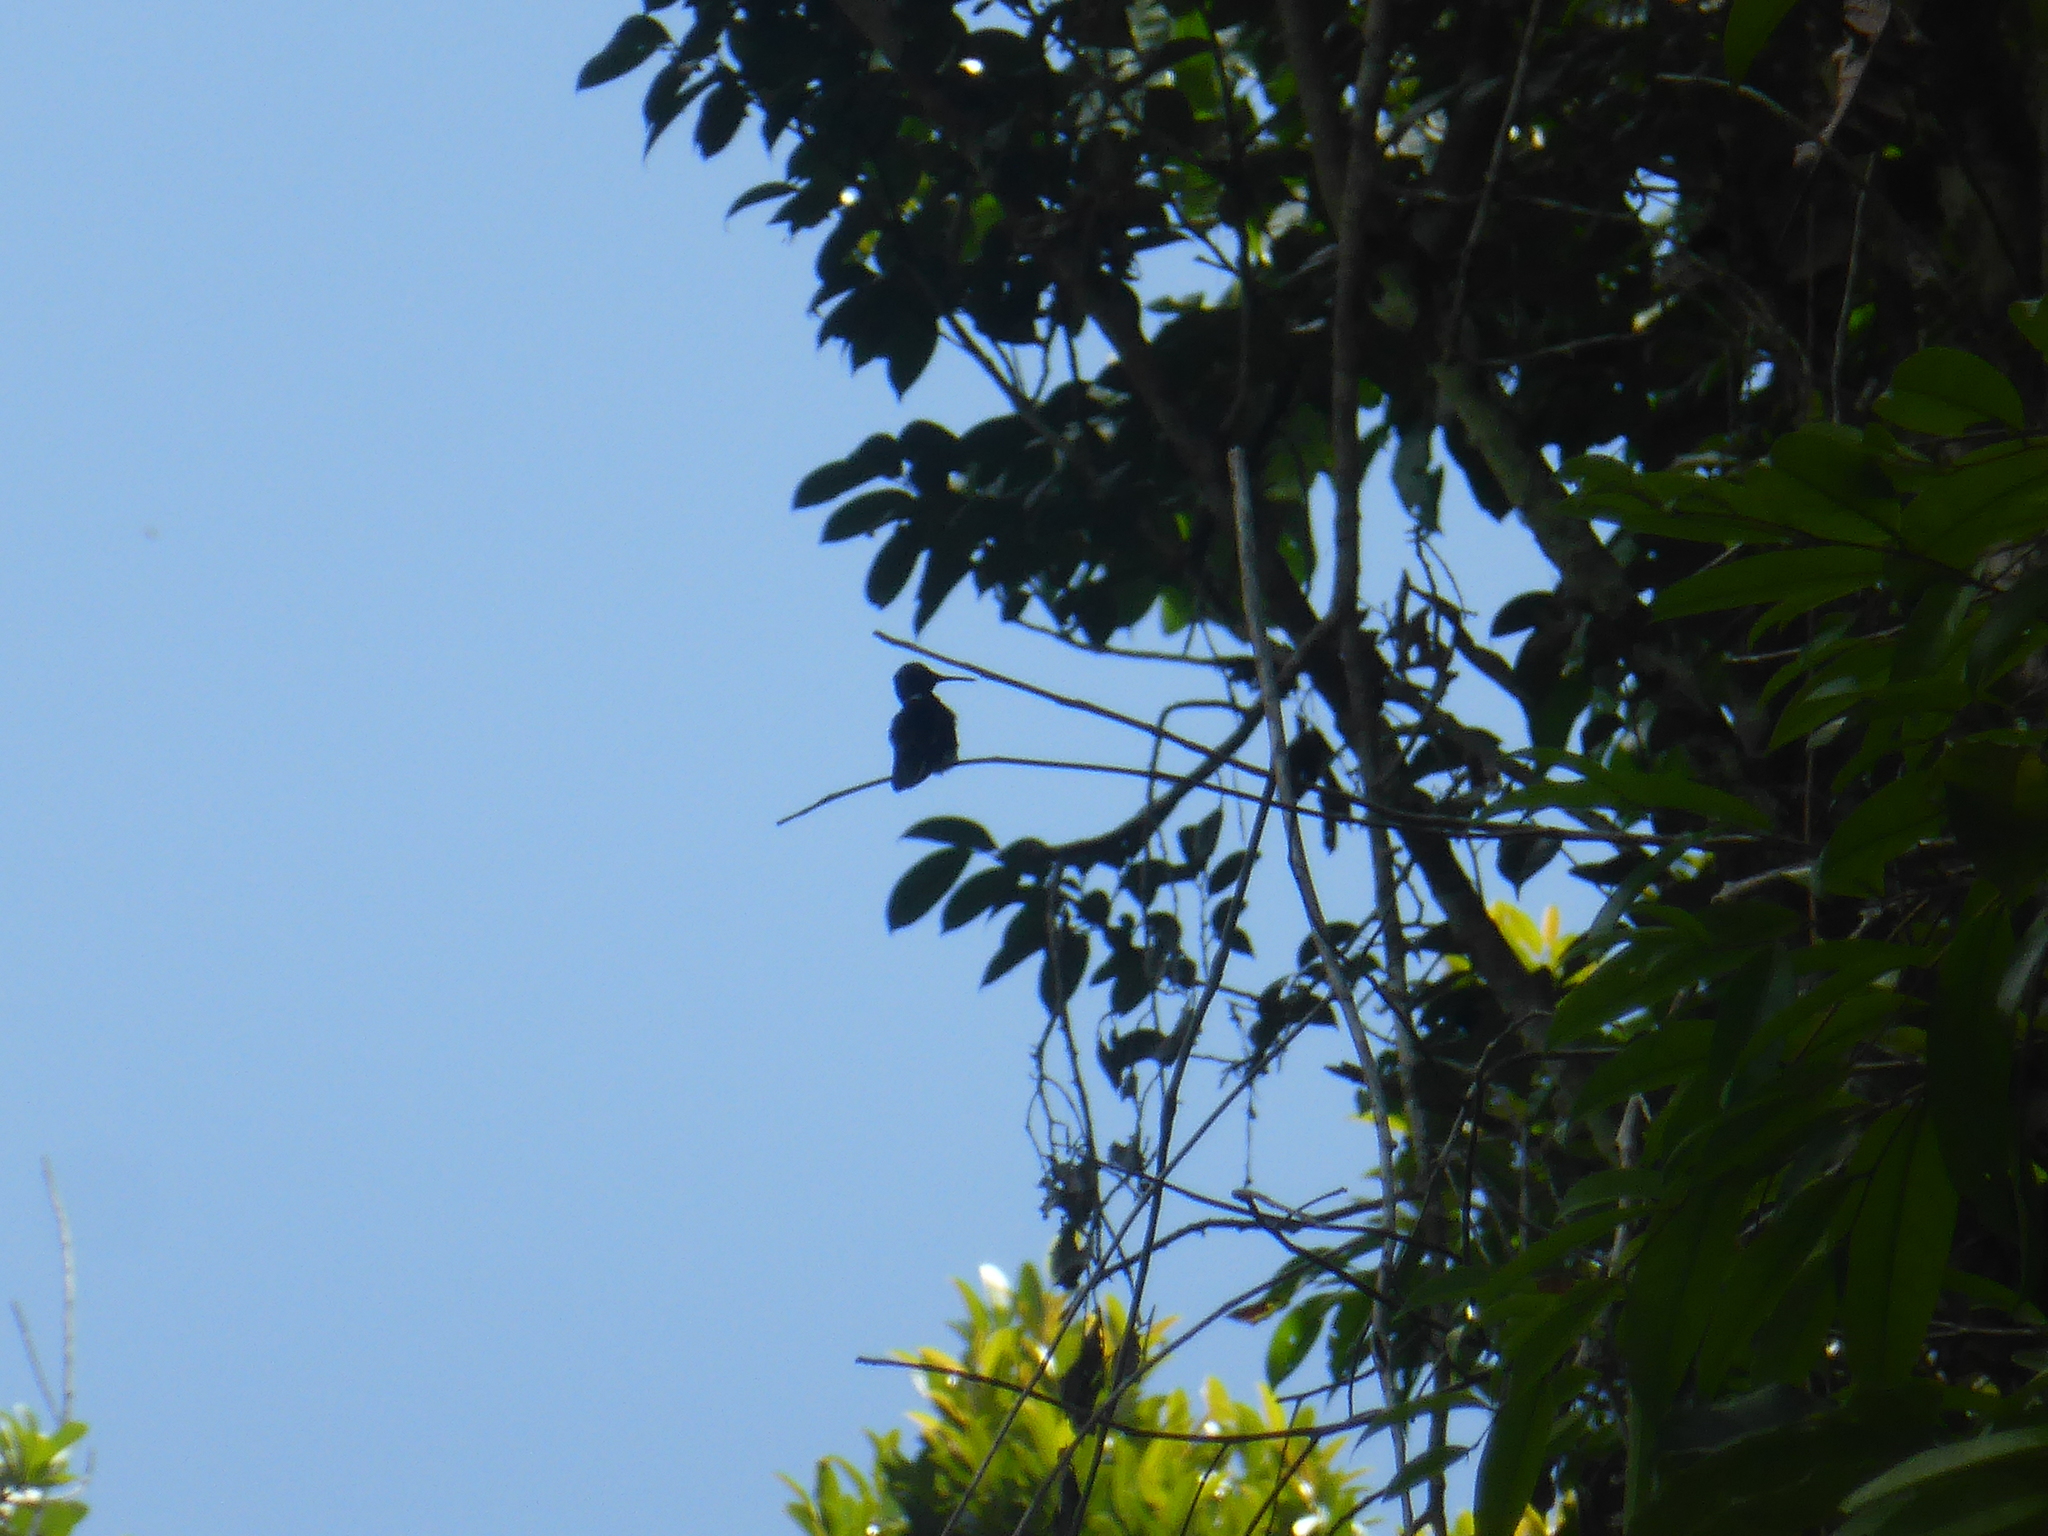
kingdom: Animalia
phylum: Chordata
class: Aves
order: Apodiformes
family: Trochilidae
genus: Florisuga
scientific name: Florisuga mellivora
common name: White-necked jacobin
